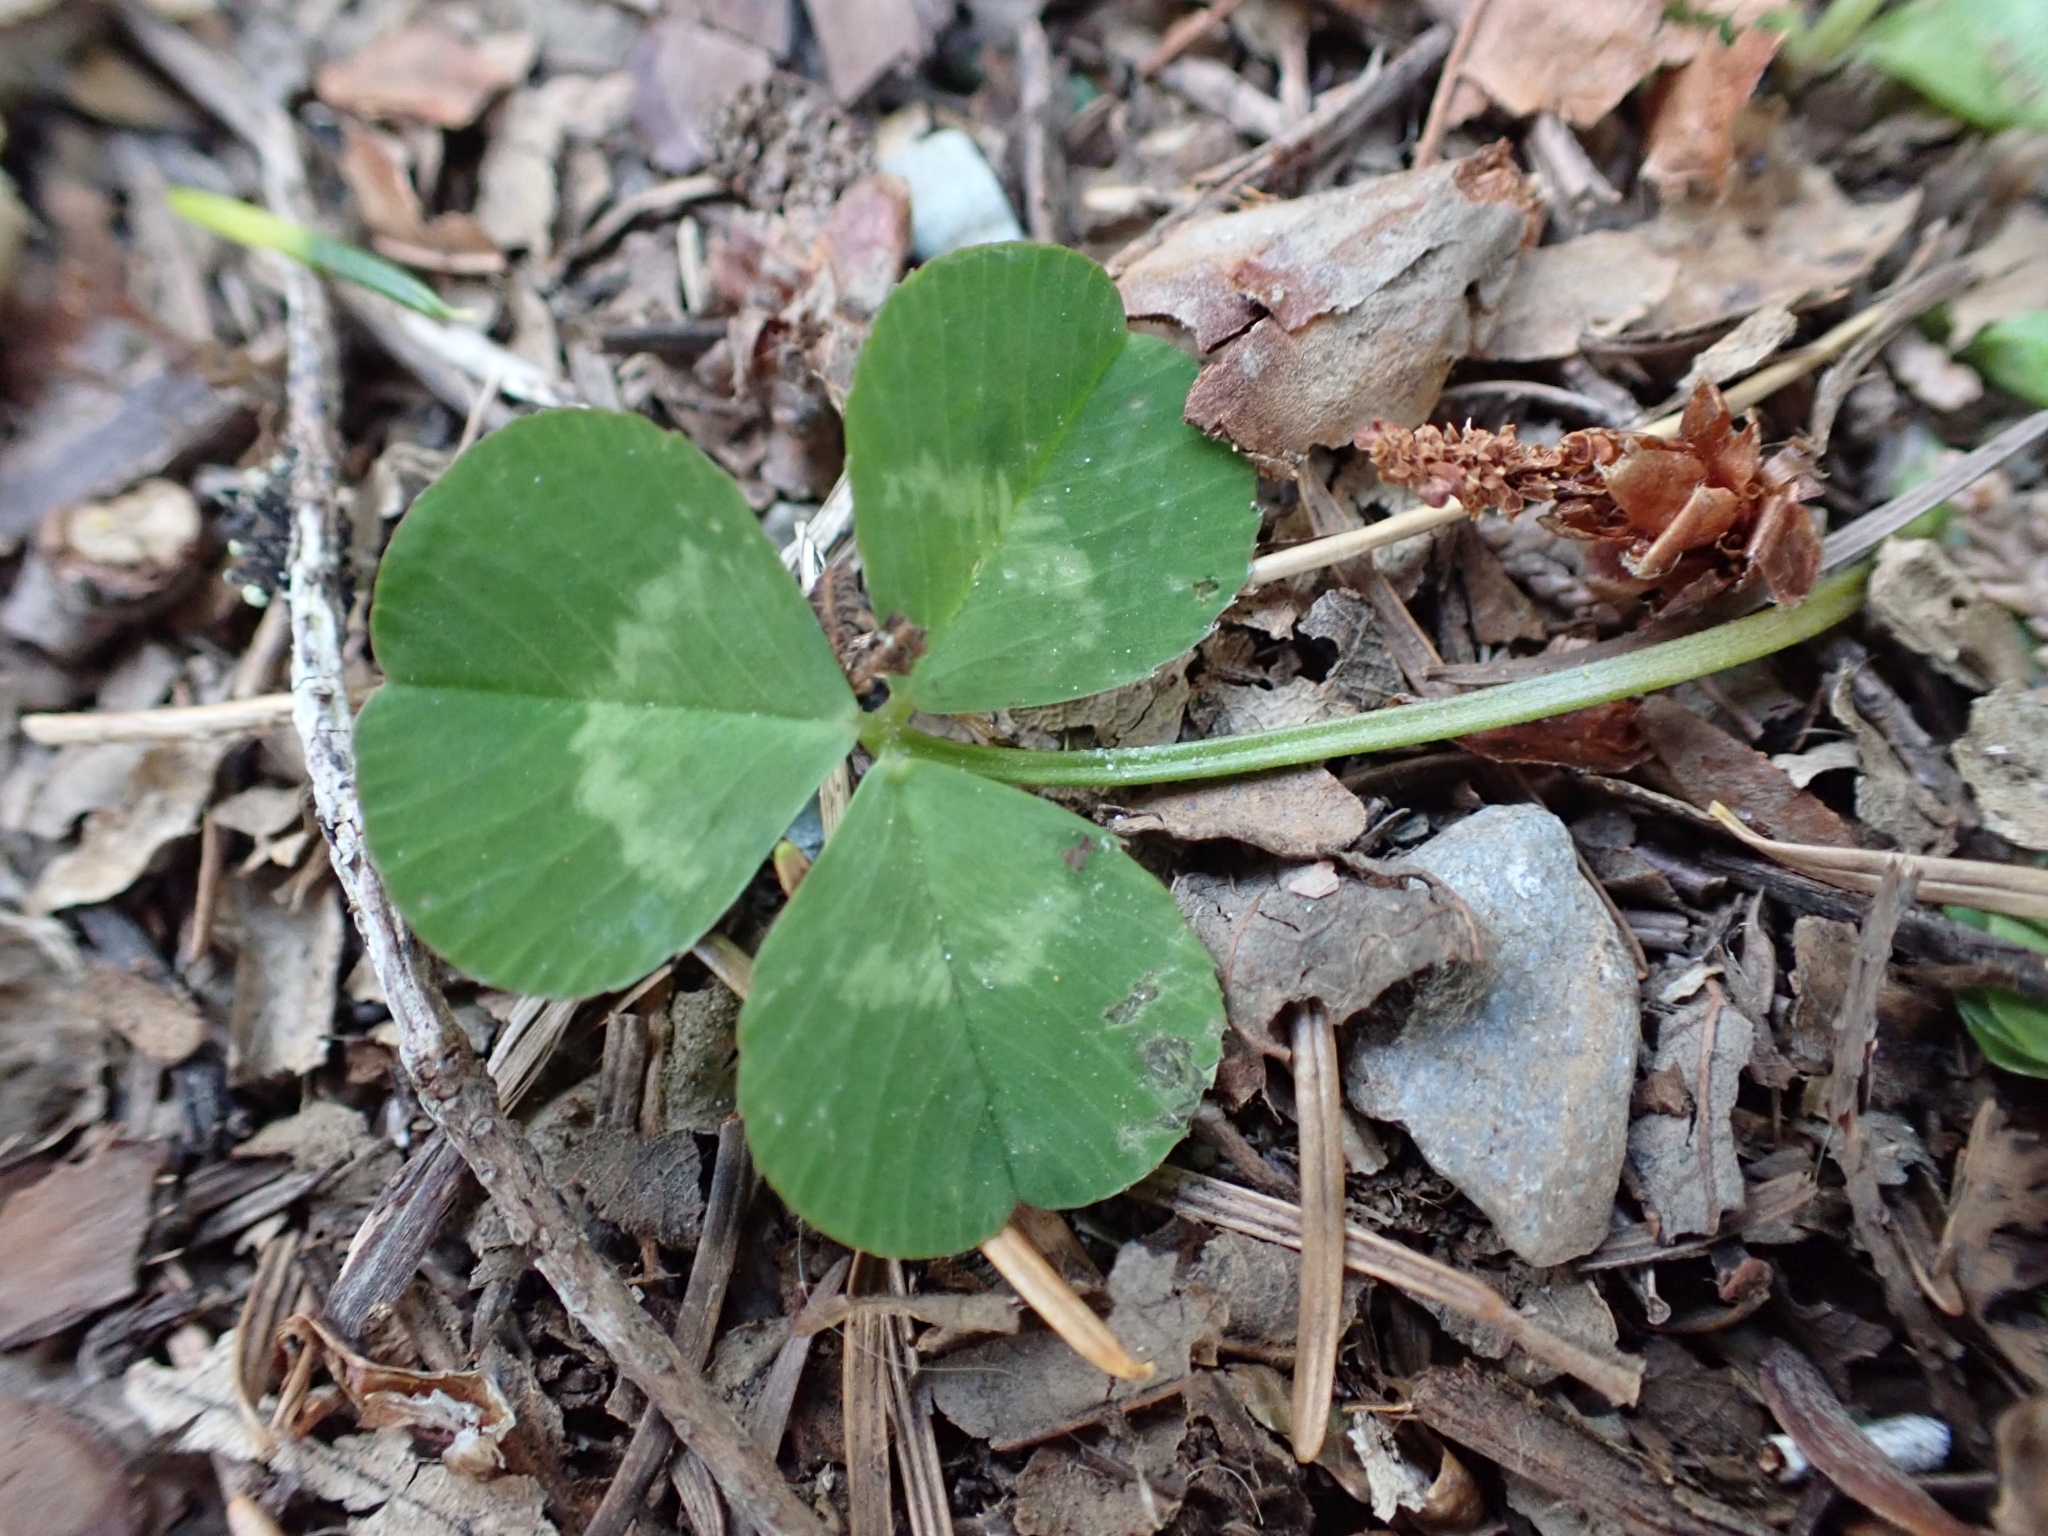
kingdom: Plantae
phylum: Tracheophyta
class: Magnoliopsida
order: Fabales
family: Fabaceae
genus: Trifolium
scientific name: Trifolium repens
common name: White clover
